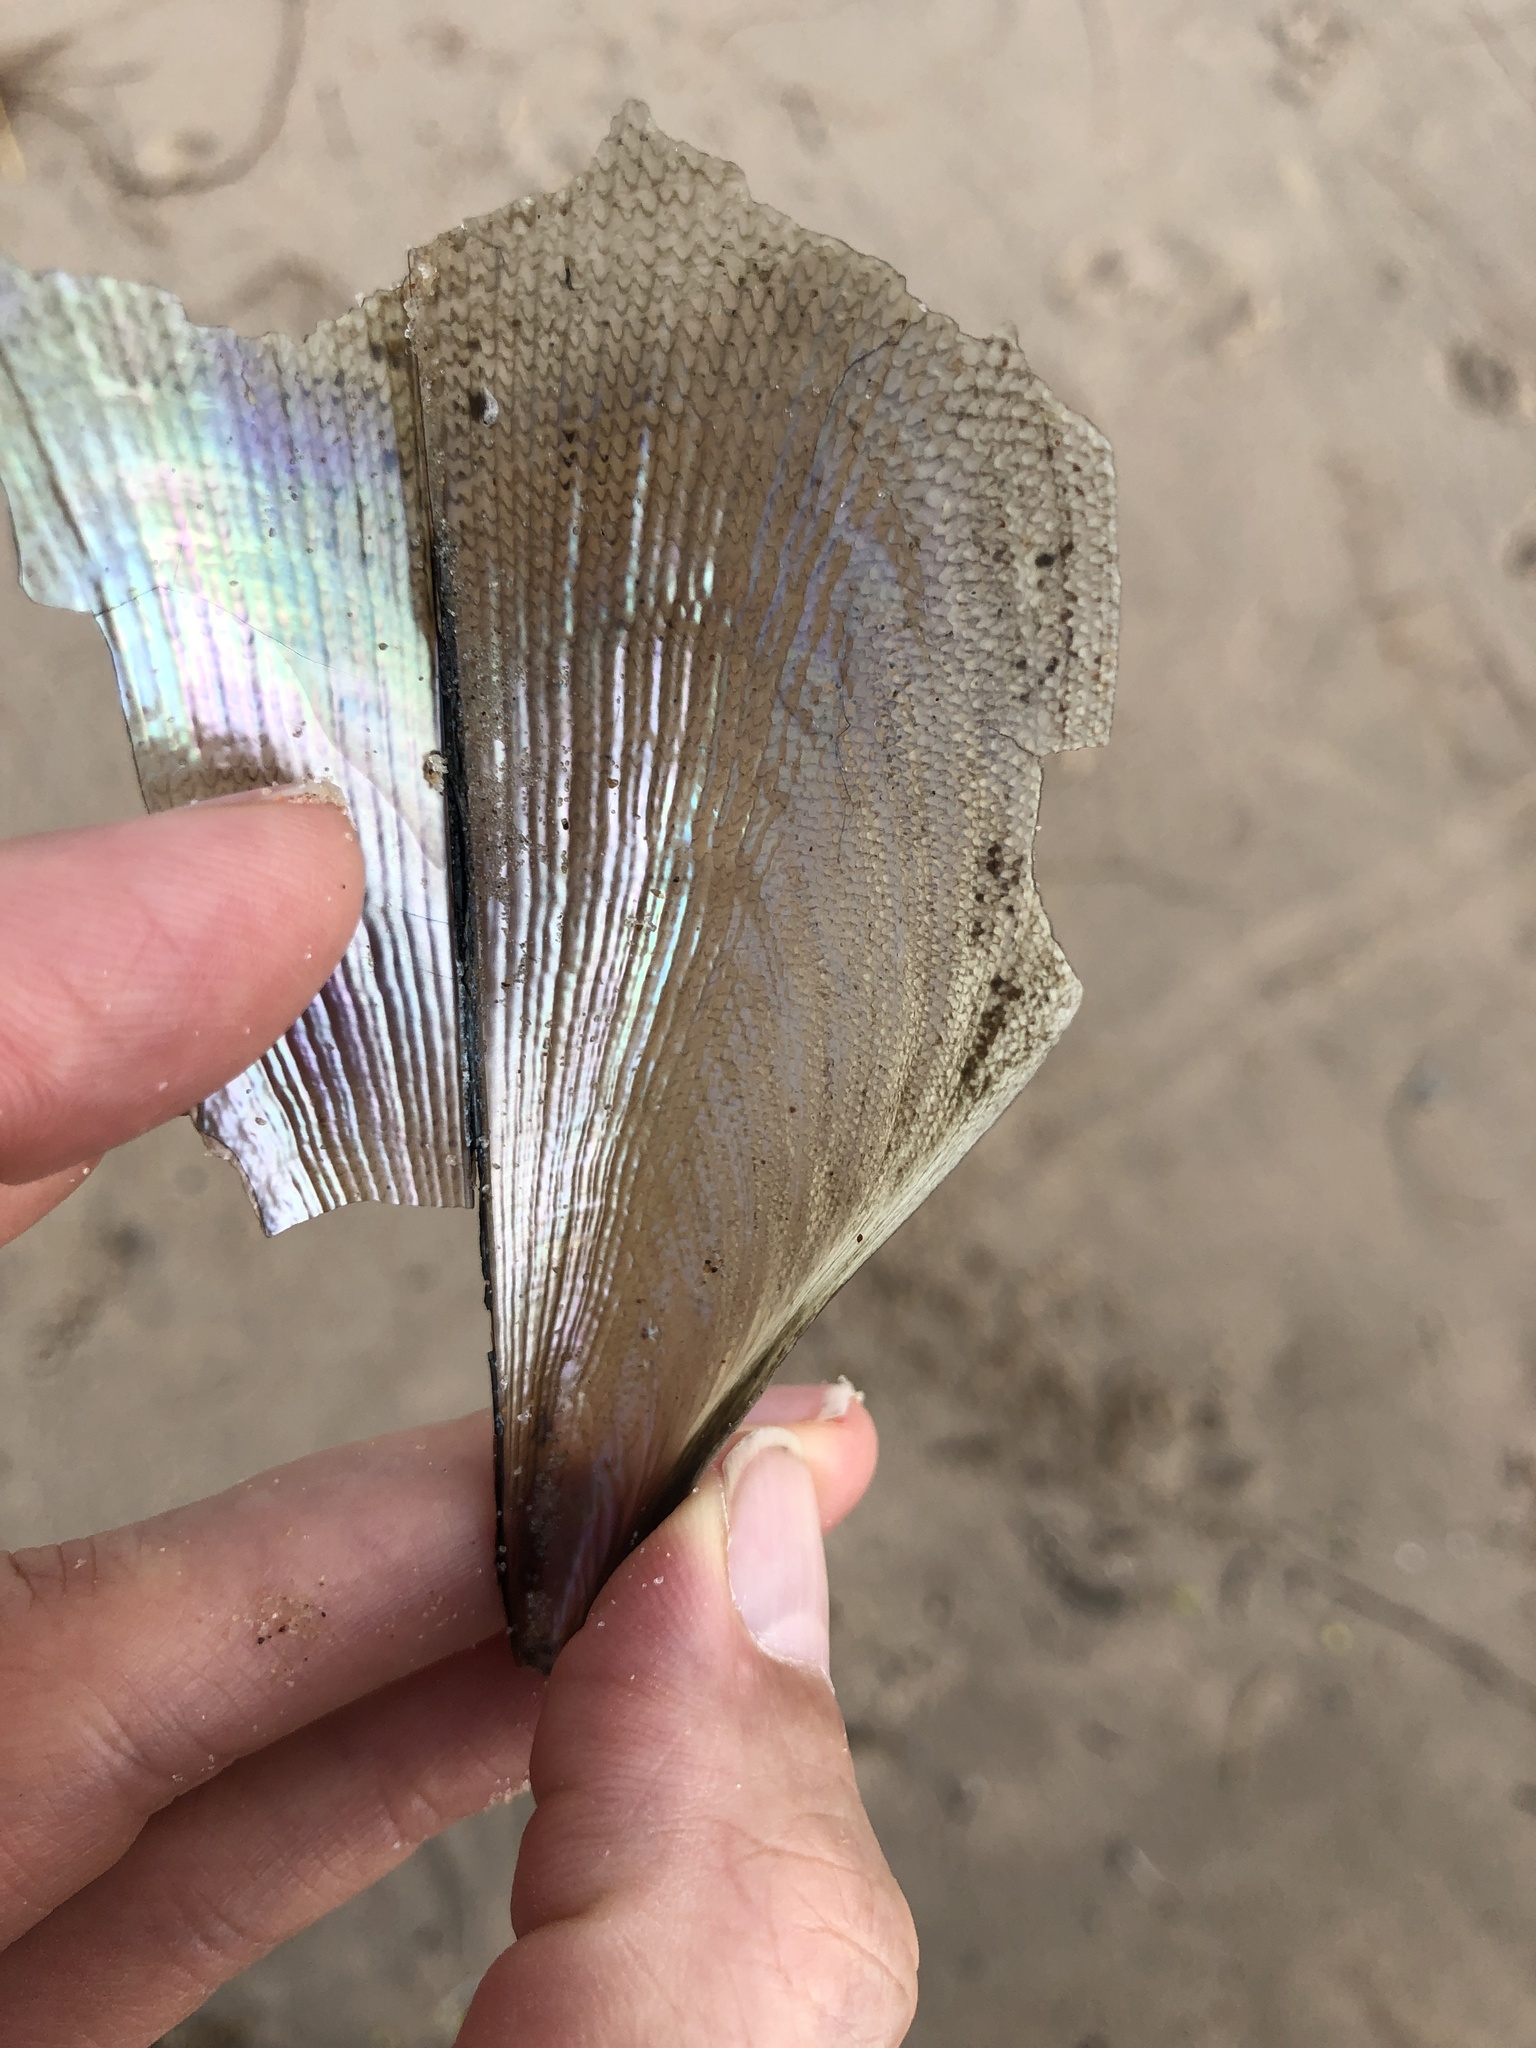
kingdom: Animalia
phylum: Mollusca
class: Bivalvia
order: Ostreida
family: Pinnidae
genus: Atrina
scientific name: Atrina serrata
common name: Saw-toothed penshell
